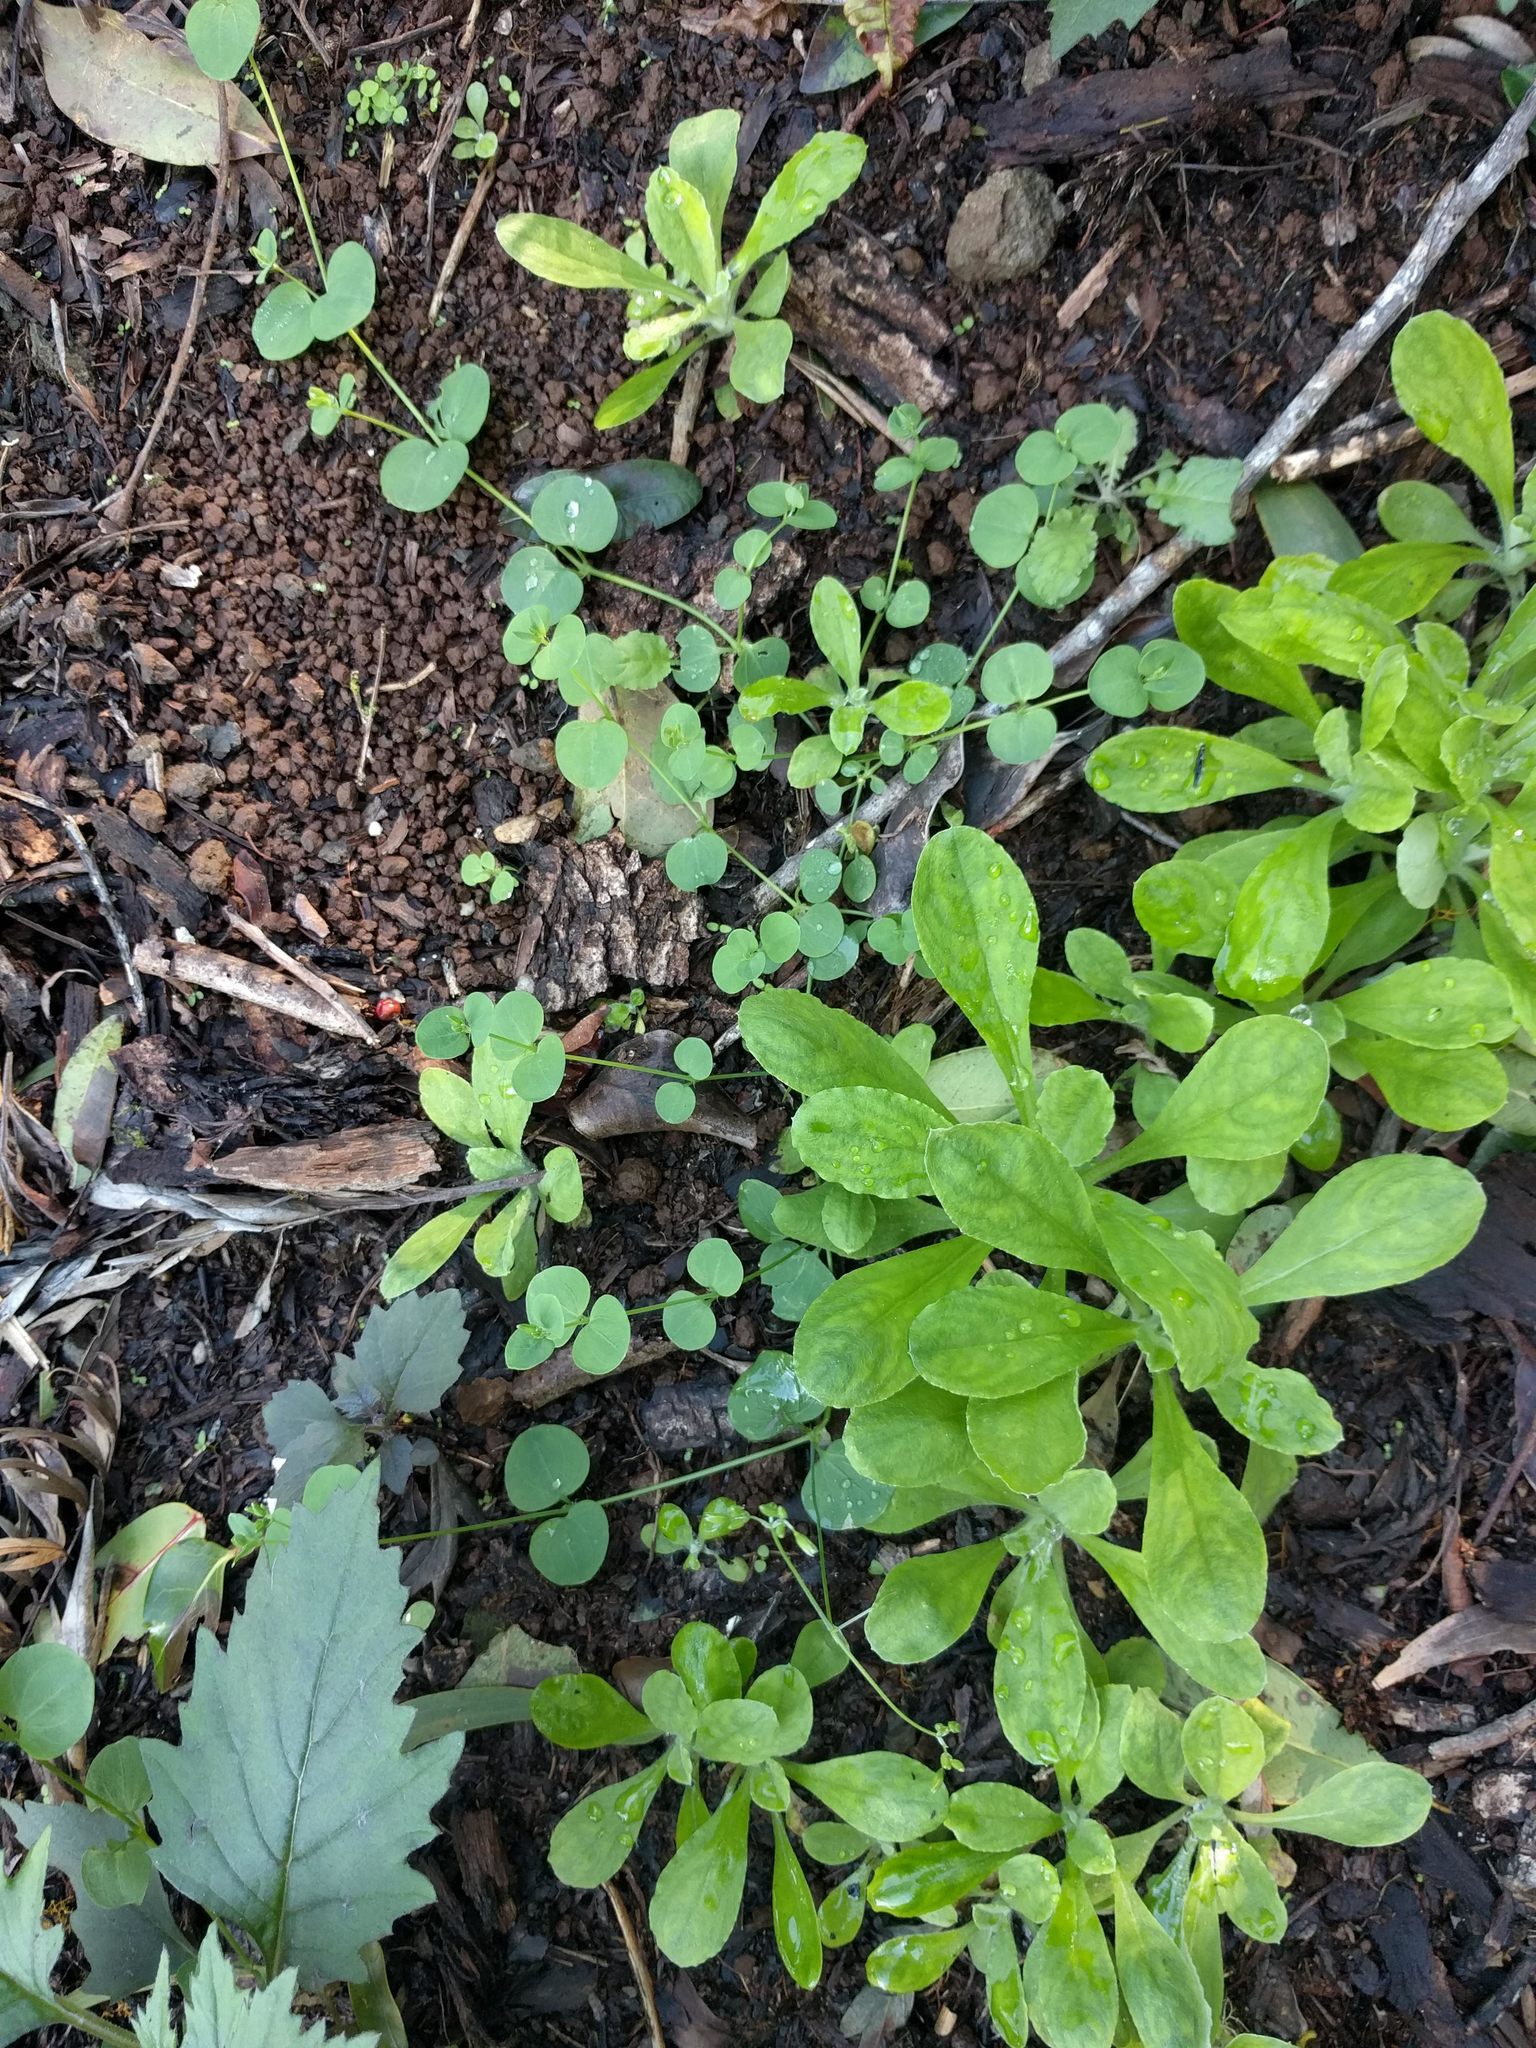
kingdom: Plantae
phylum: Tracheophyta
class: Magnoliopsida
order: Caryophyllales
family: Caryophyllaceae
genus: Drymaria
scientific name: Drymaria cordata
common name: Whitesnow
